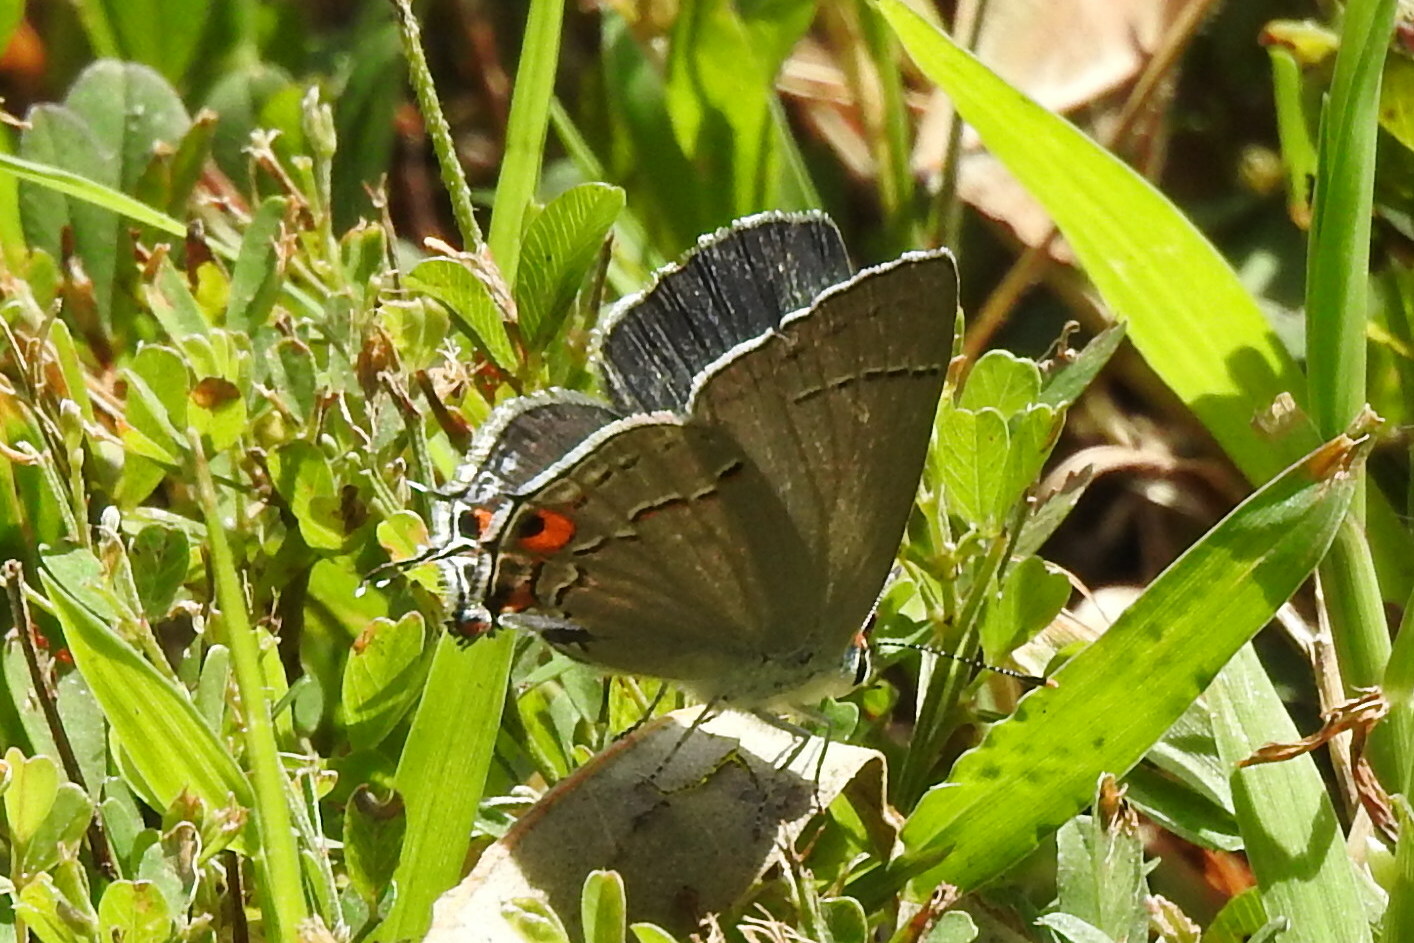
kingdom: Animalia
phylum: Arthropoda
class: Insecta
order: Lepidoptera
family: Lycaenidae
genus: Strymon
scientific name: Strymon melinus
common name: Gray hairstreak
